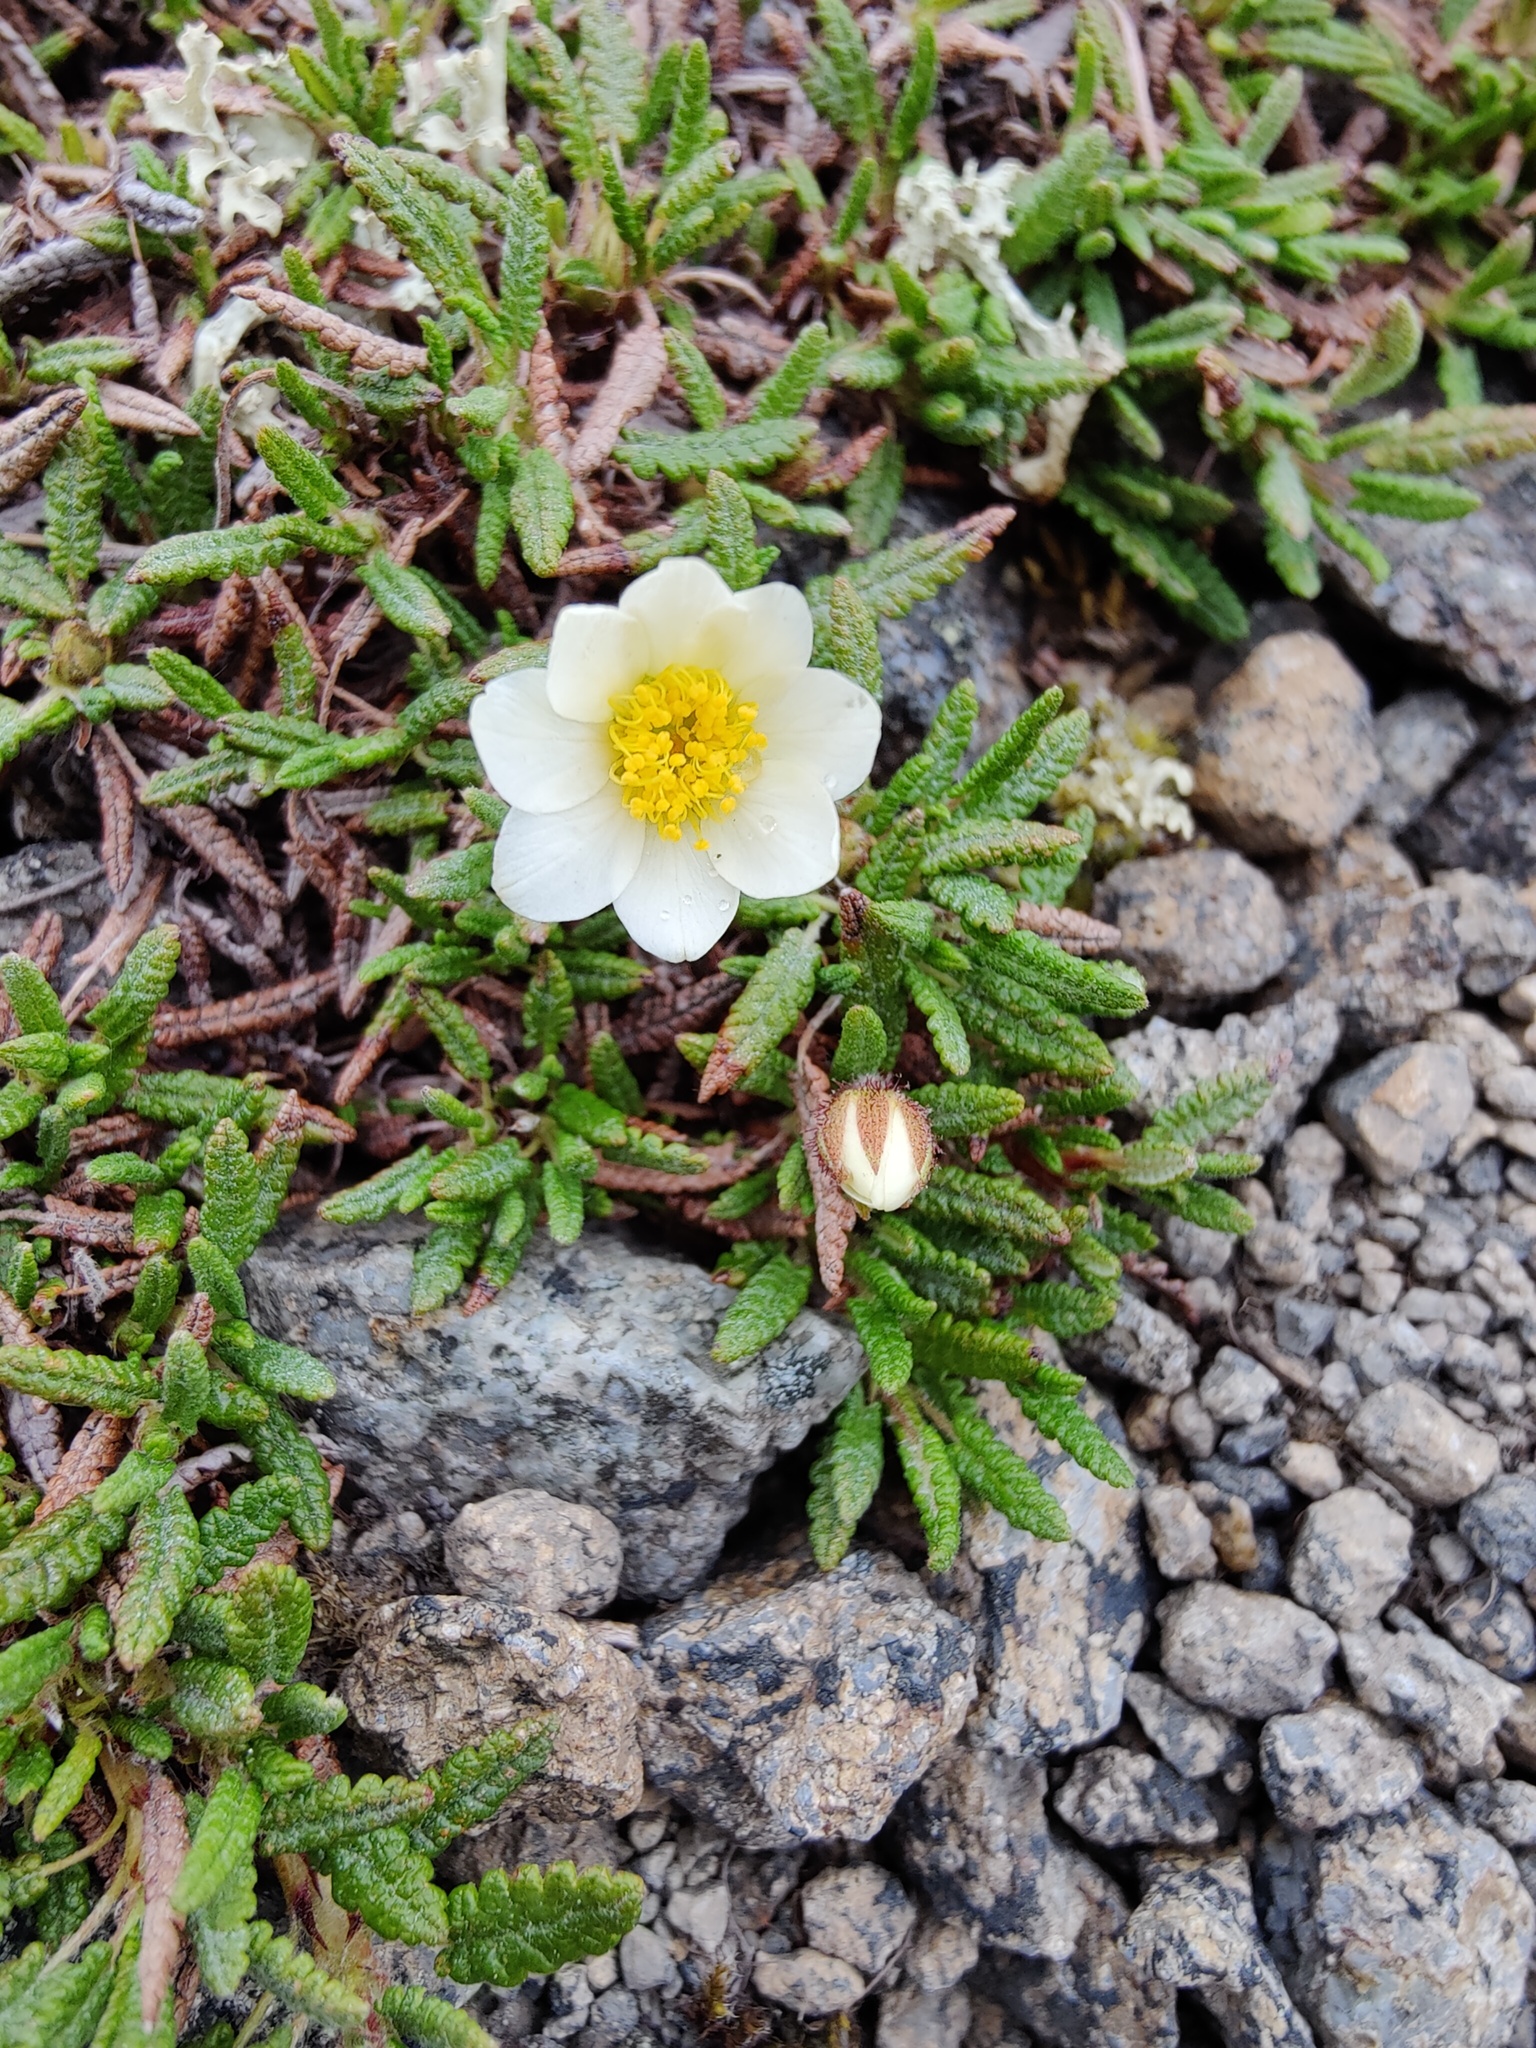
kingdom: Plantae
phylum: Tracheophyta
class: Magnoliopsida
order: Rosales
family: Rosaceae
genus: Dryas
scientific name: Dryas octopetala
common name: Eight-petal mountain-avens
